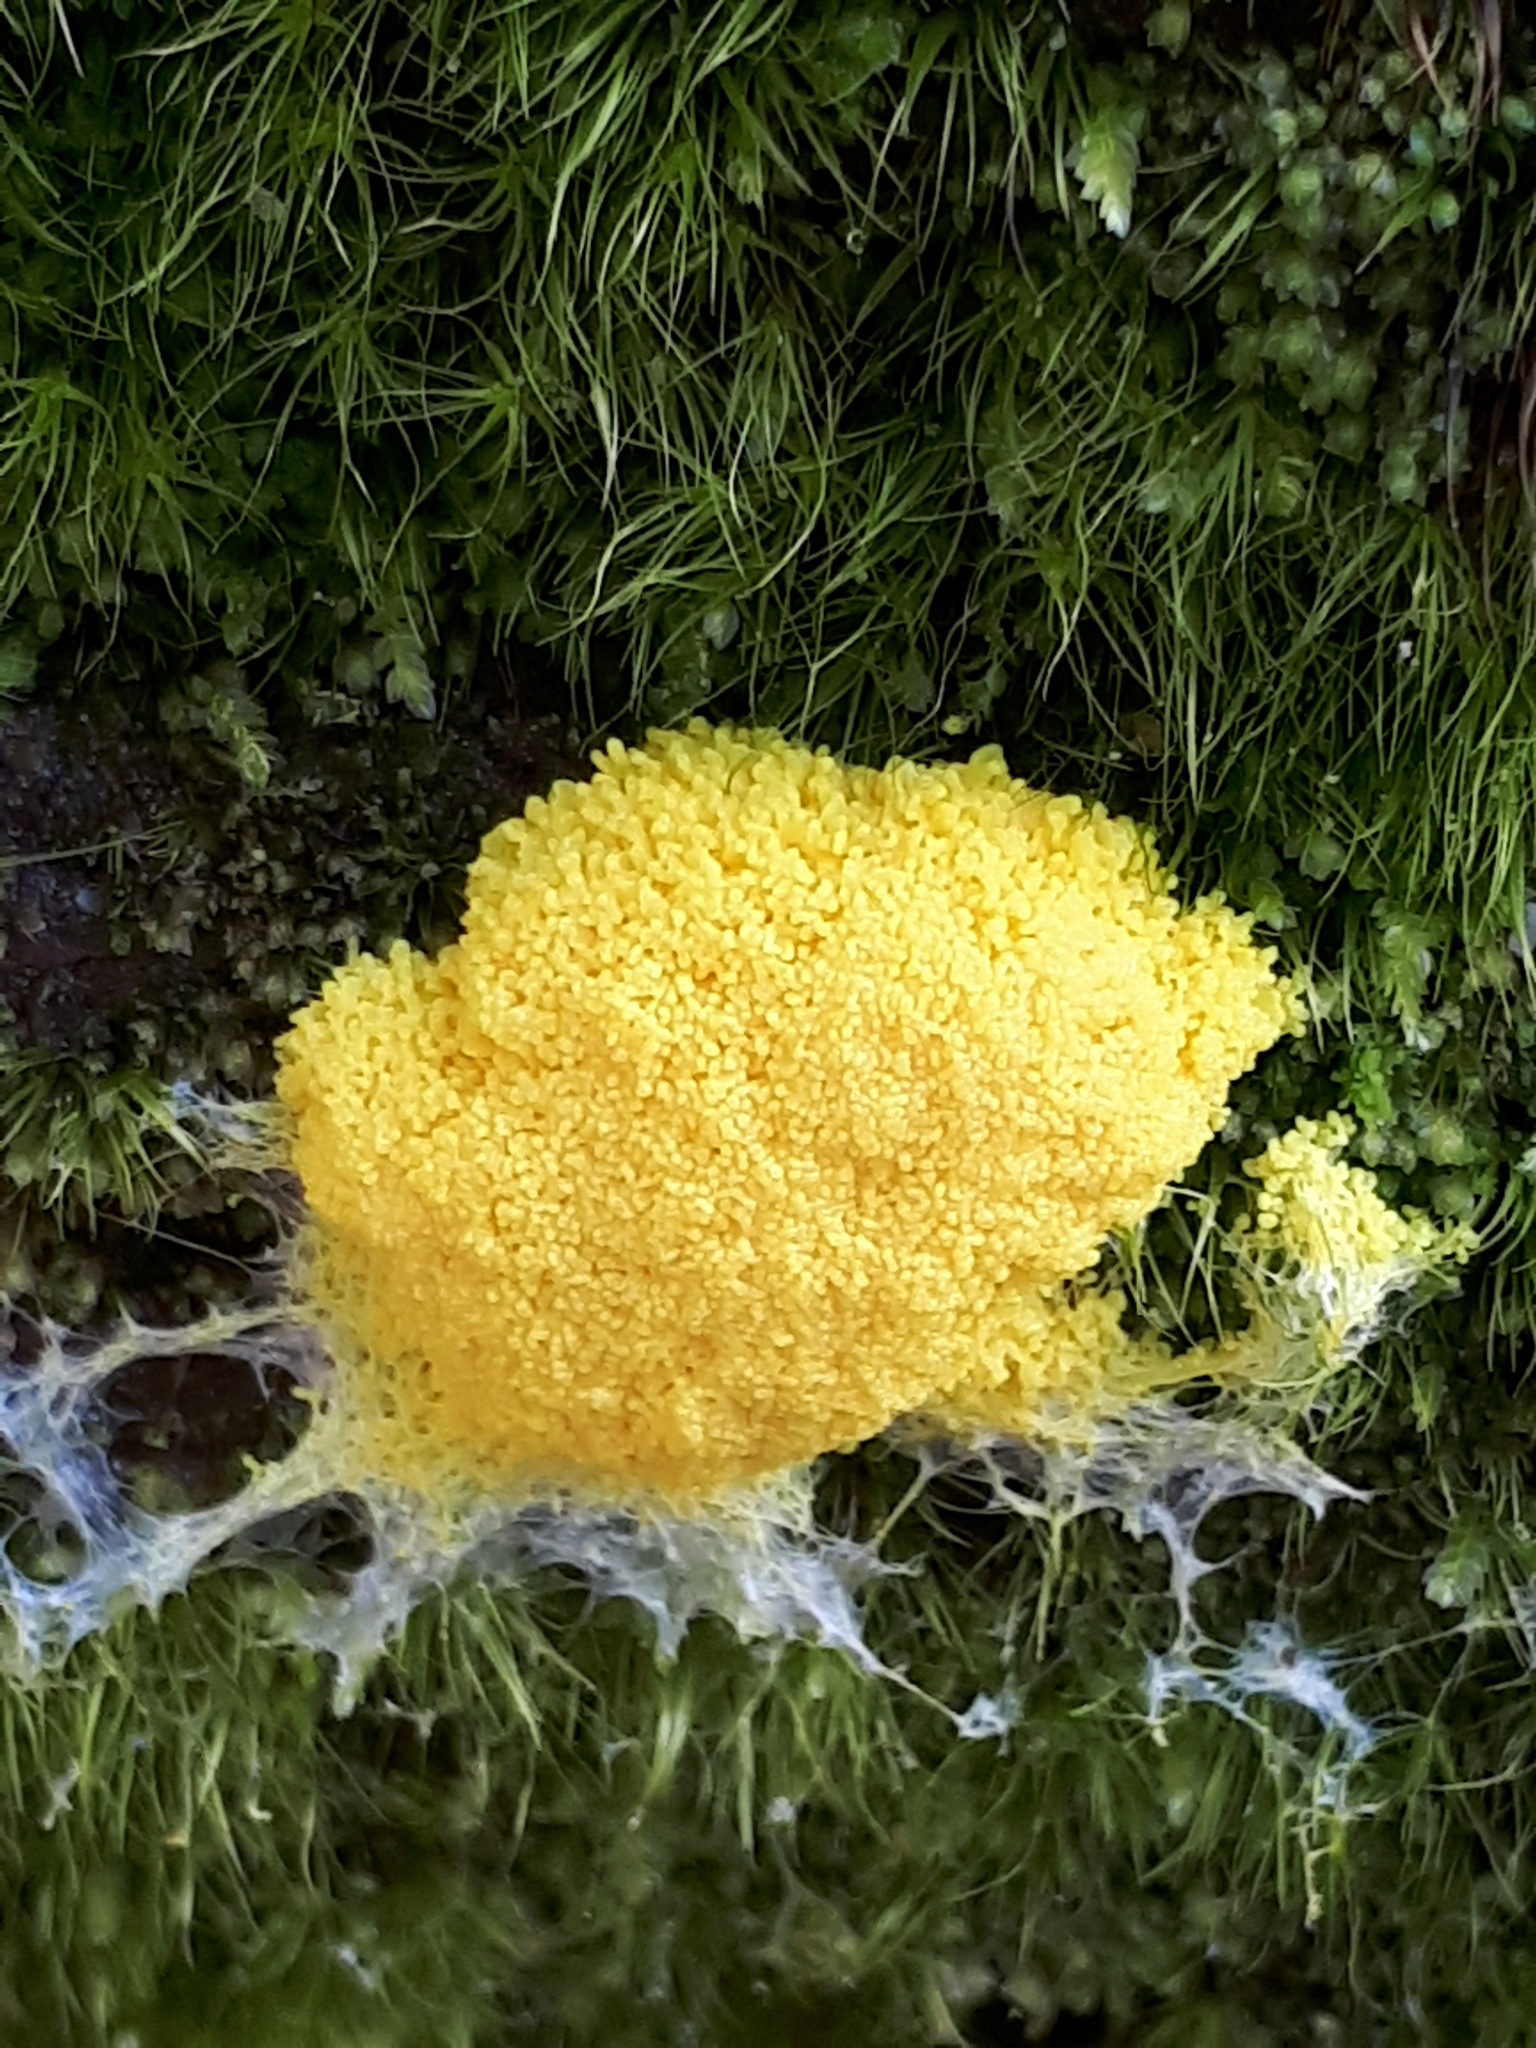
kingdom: Protozoa
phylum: Mycetozoa
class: Myxomycetes
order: Physarales
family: Physaraceae
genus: Fuligo
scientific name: Fuligo septica
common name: Dog vomit slime mold
